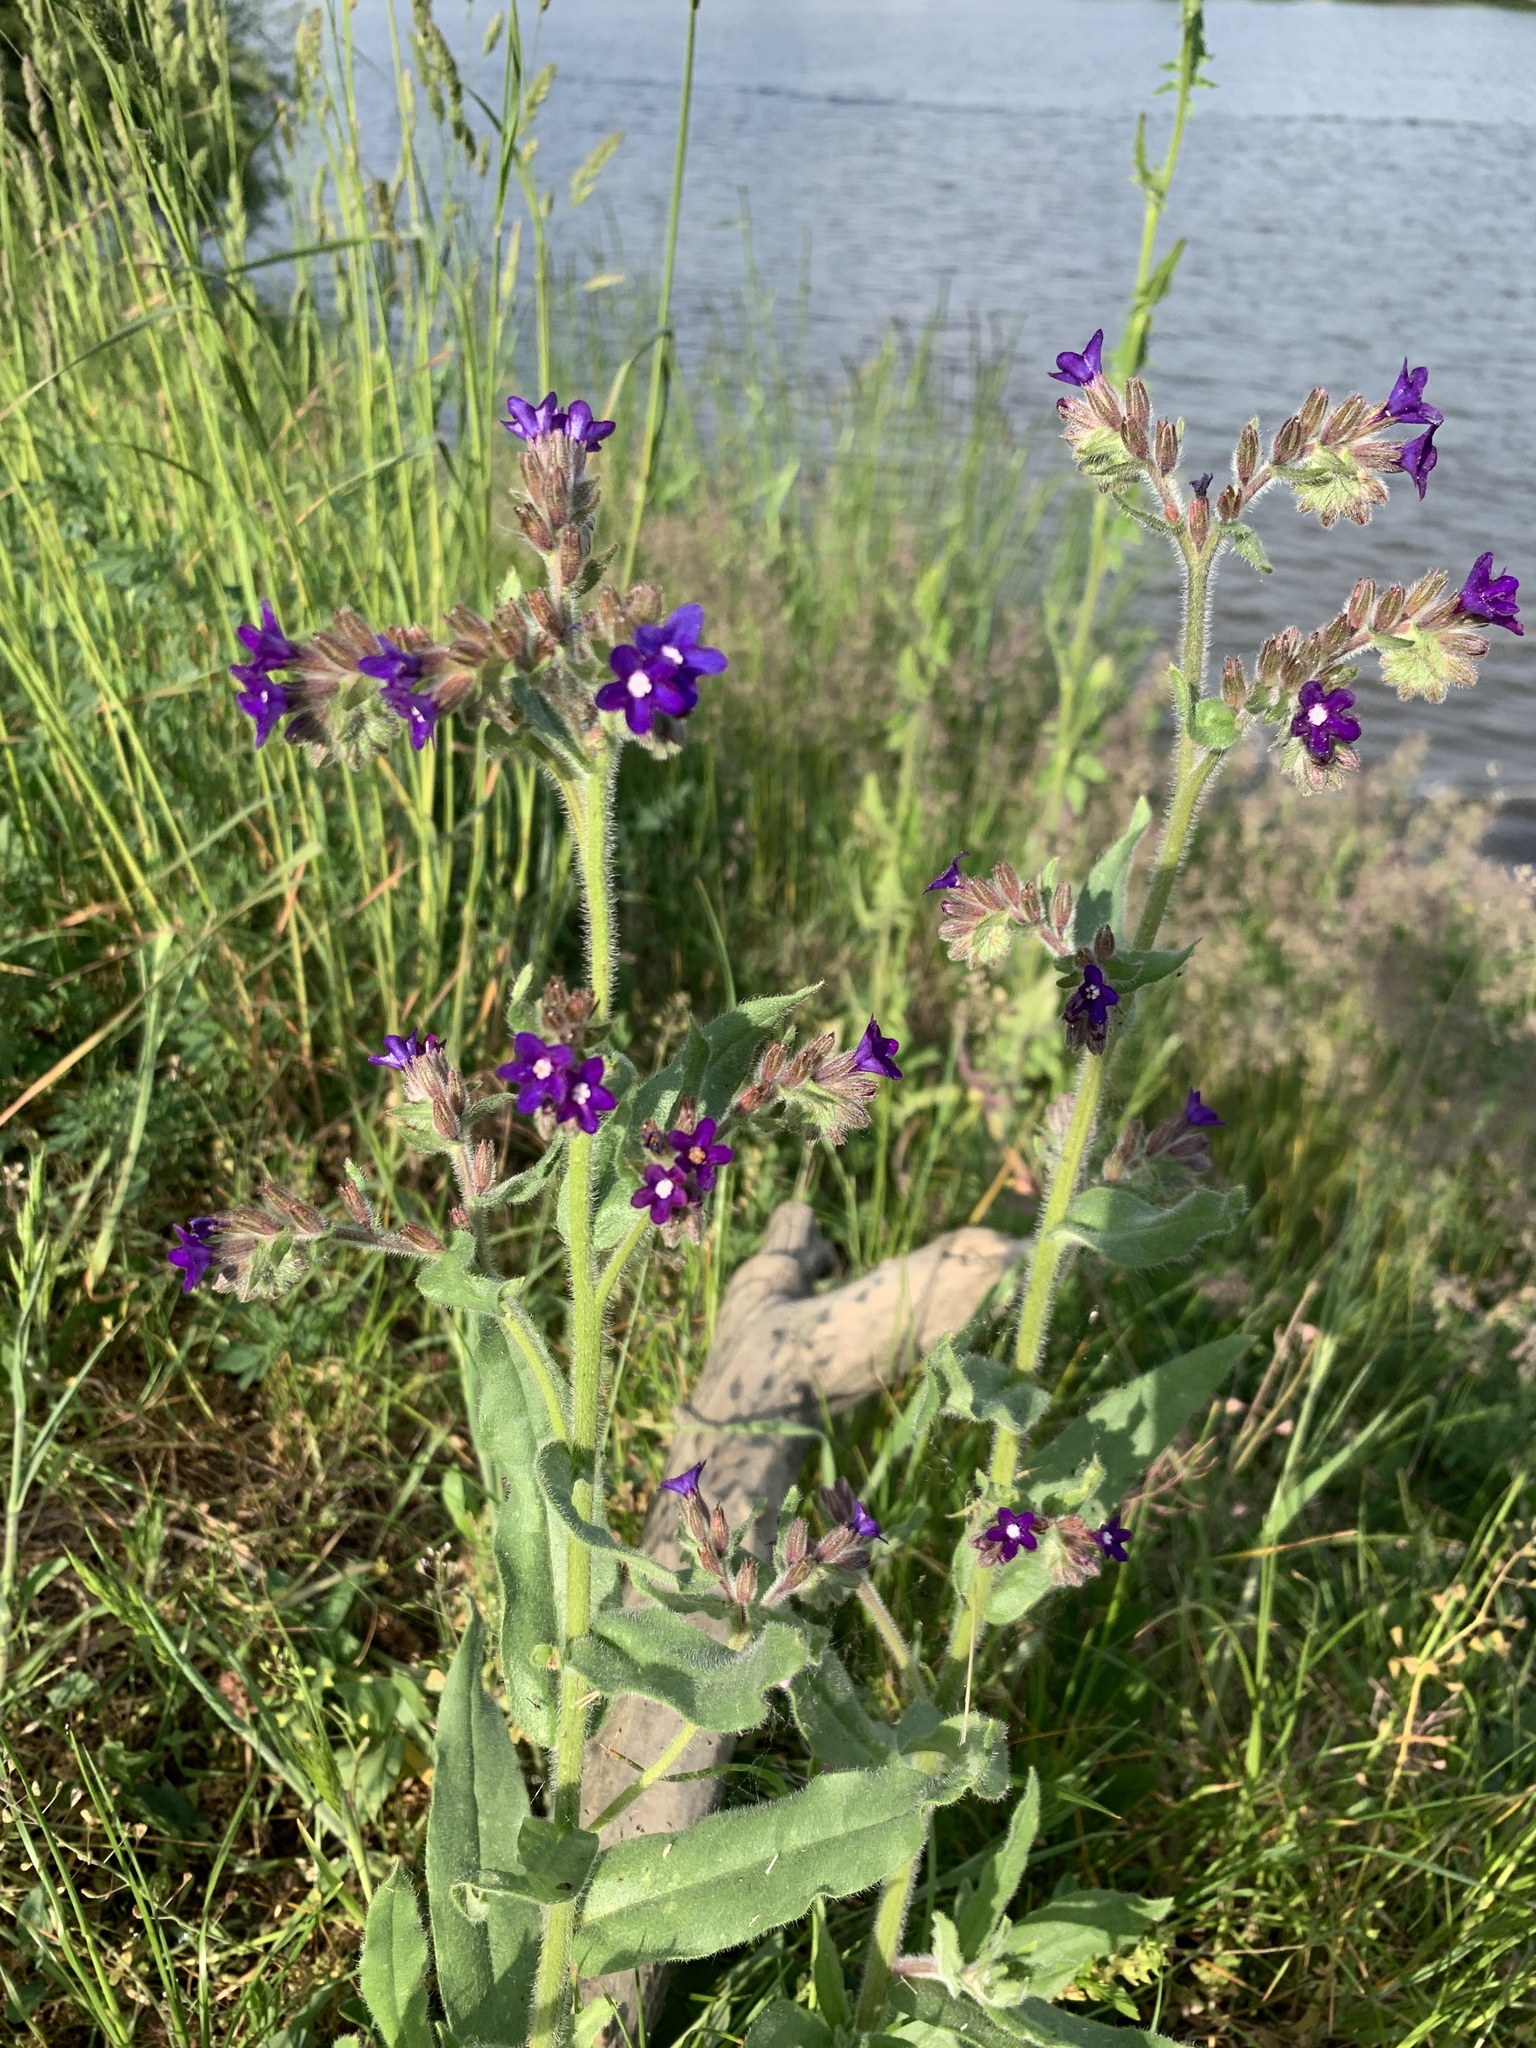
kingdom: Plantae
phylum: Tracheophyta
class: Magnoliopsida
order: Boraginales
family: Boraginaceae
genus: Anchusa
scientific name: Anchusa officinalis
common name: Alkanet
